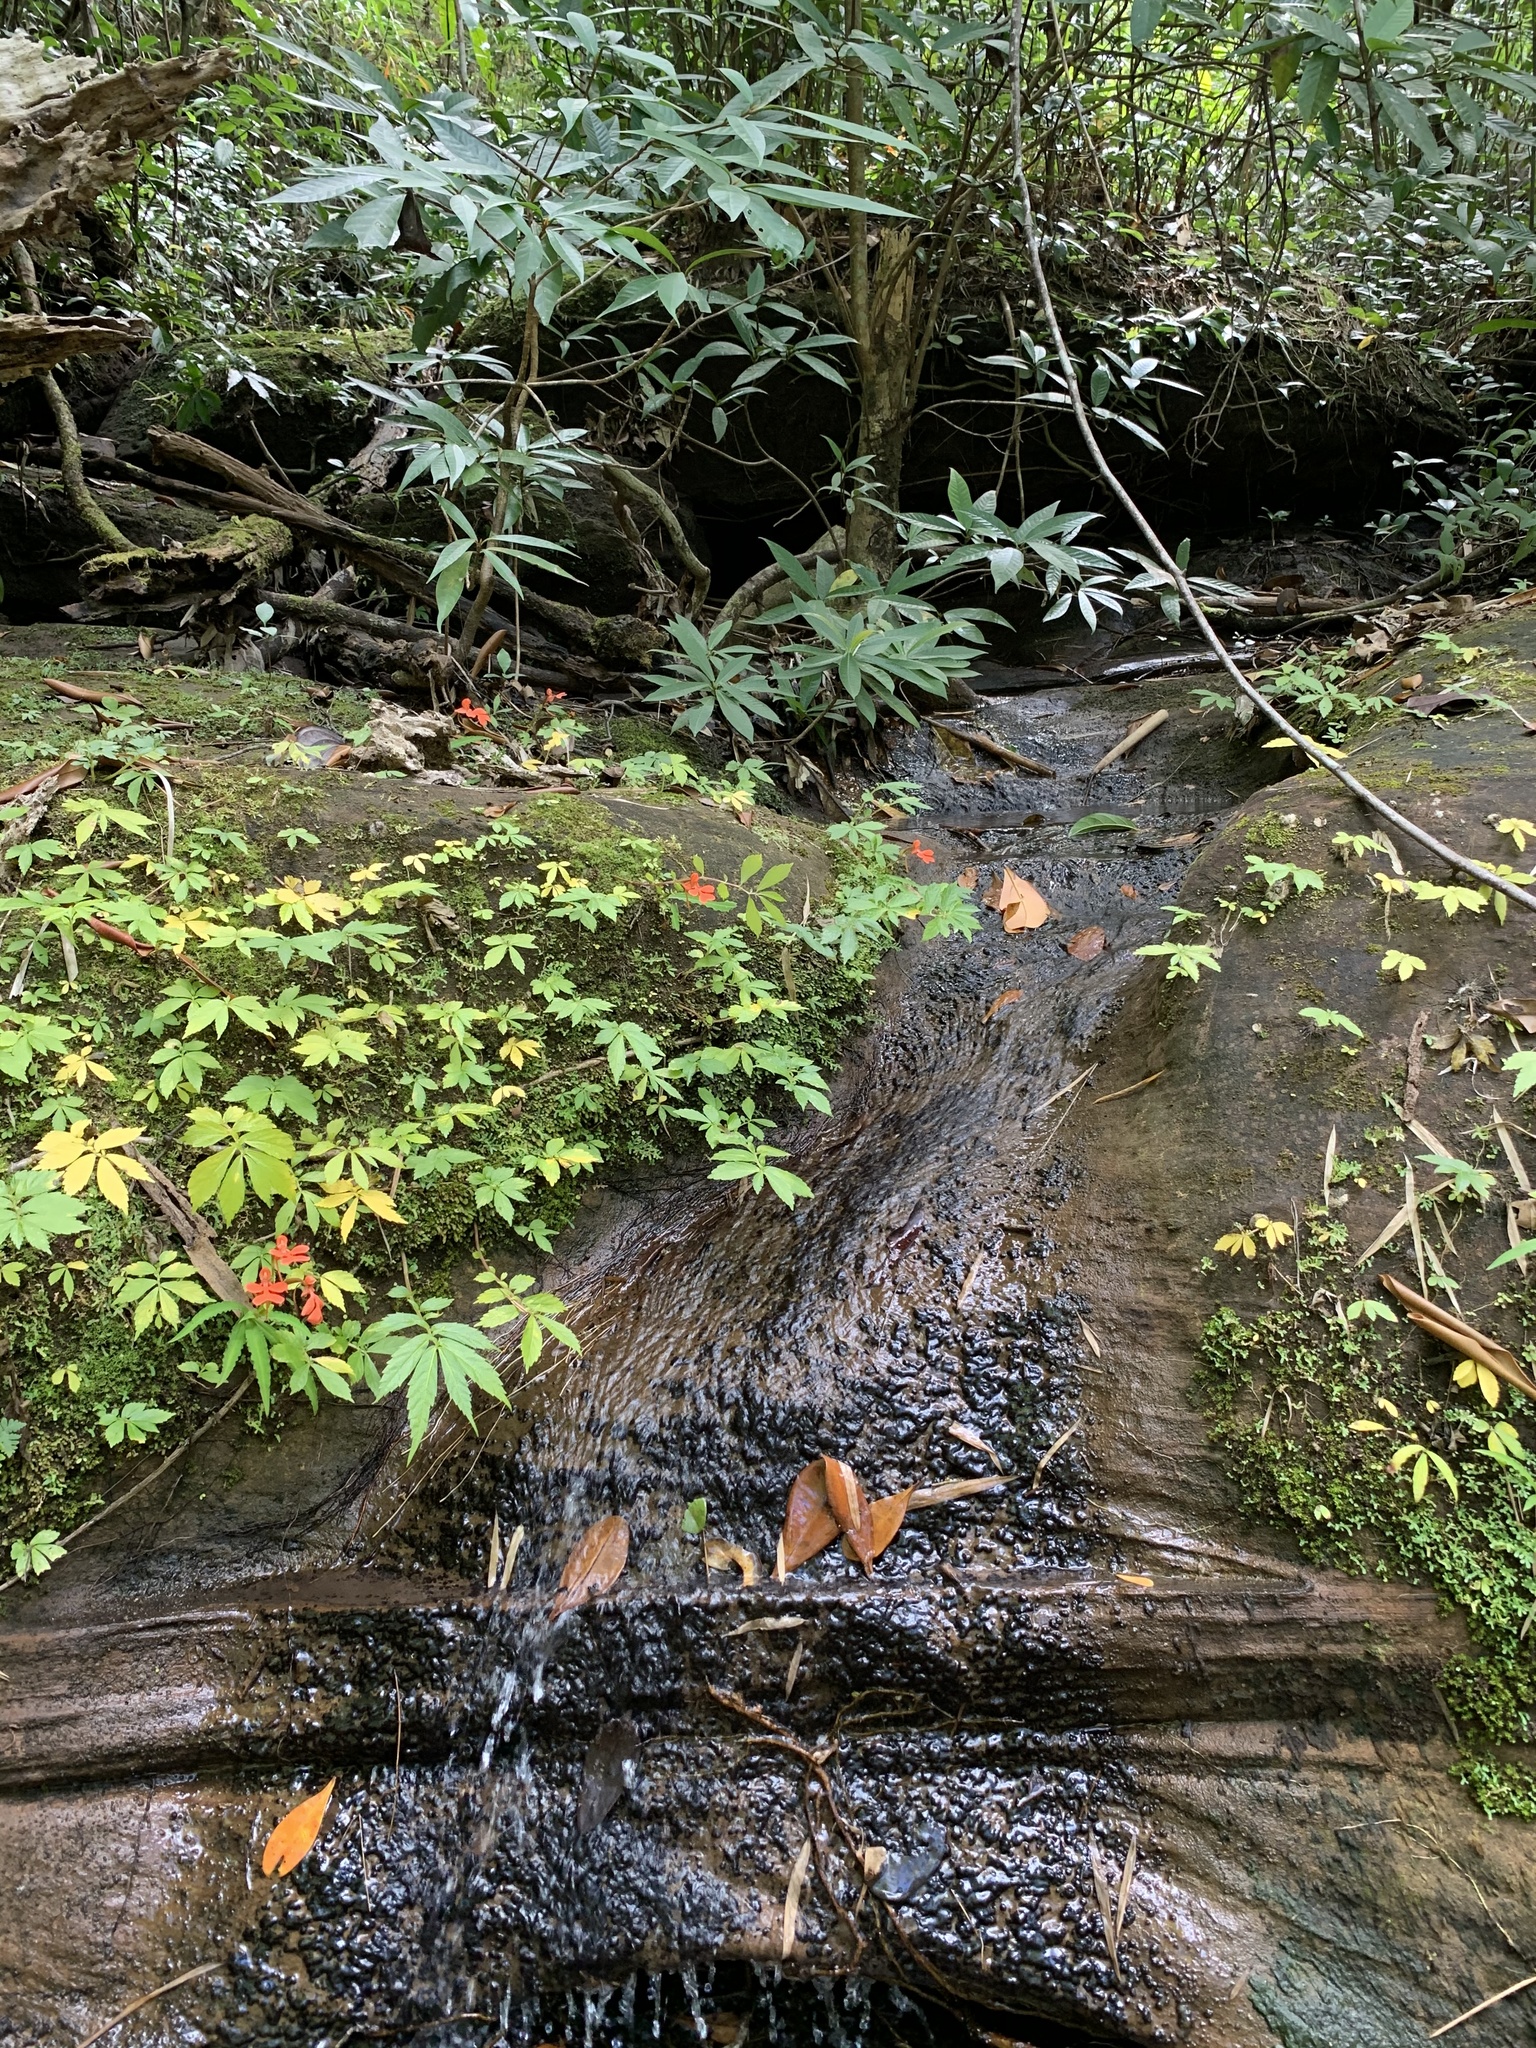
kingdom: Plantae
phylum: Tracheophyta
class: Liliopsida
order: Asparagales
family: Orchidaceae
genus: Habenaria
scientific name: Habenaria rhodocheila
